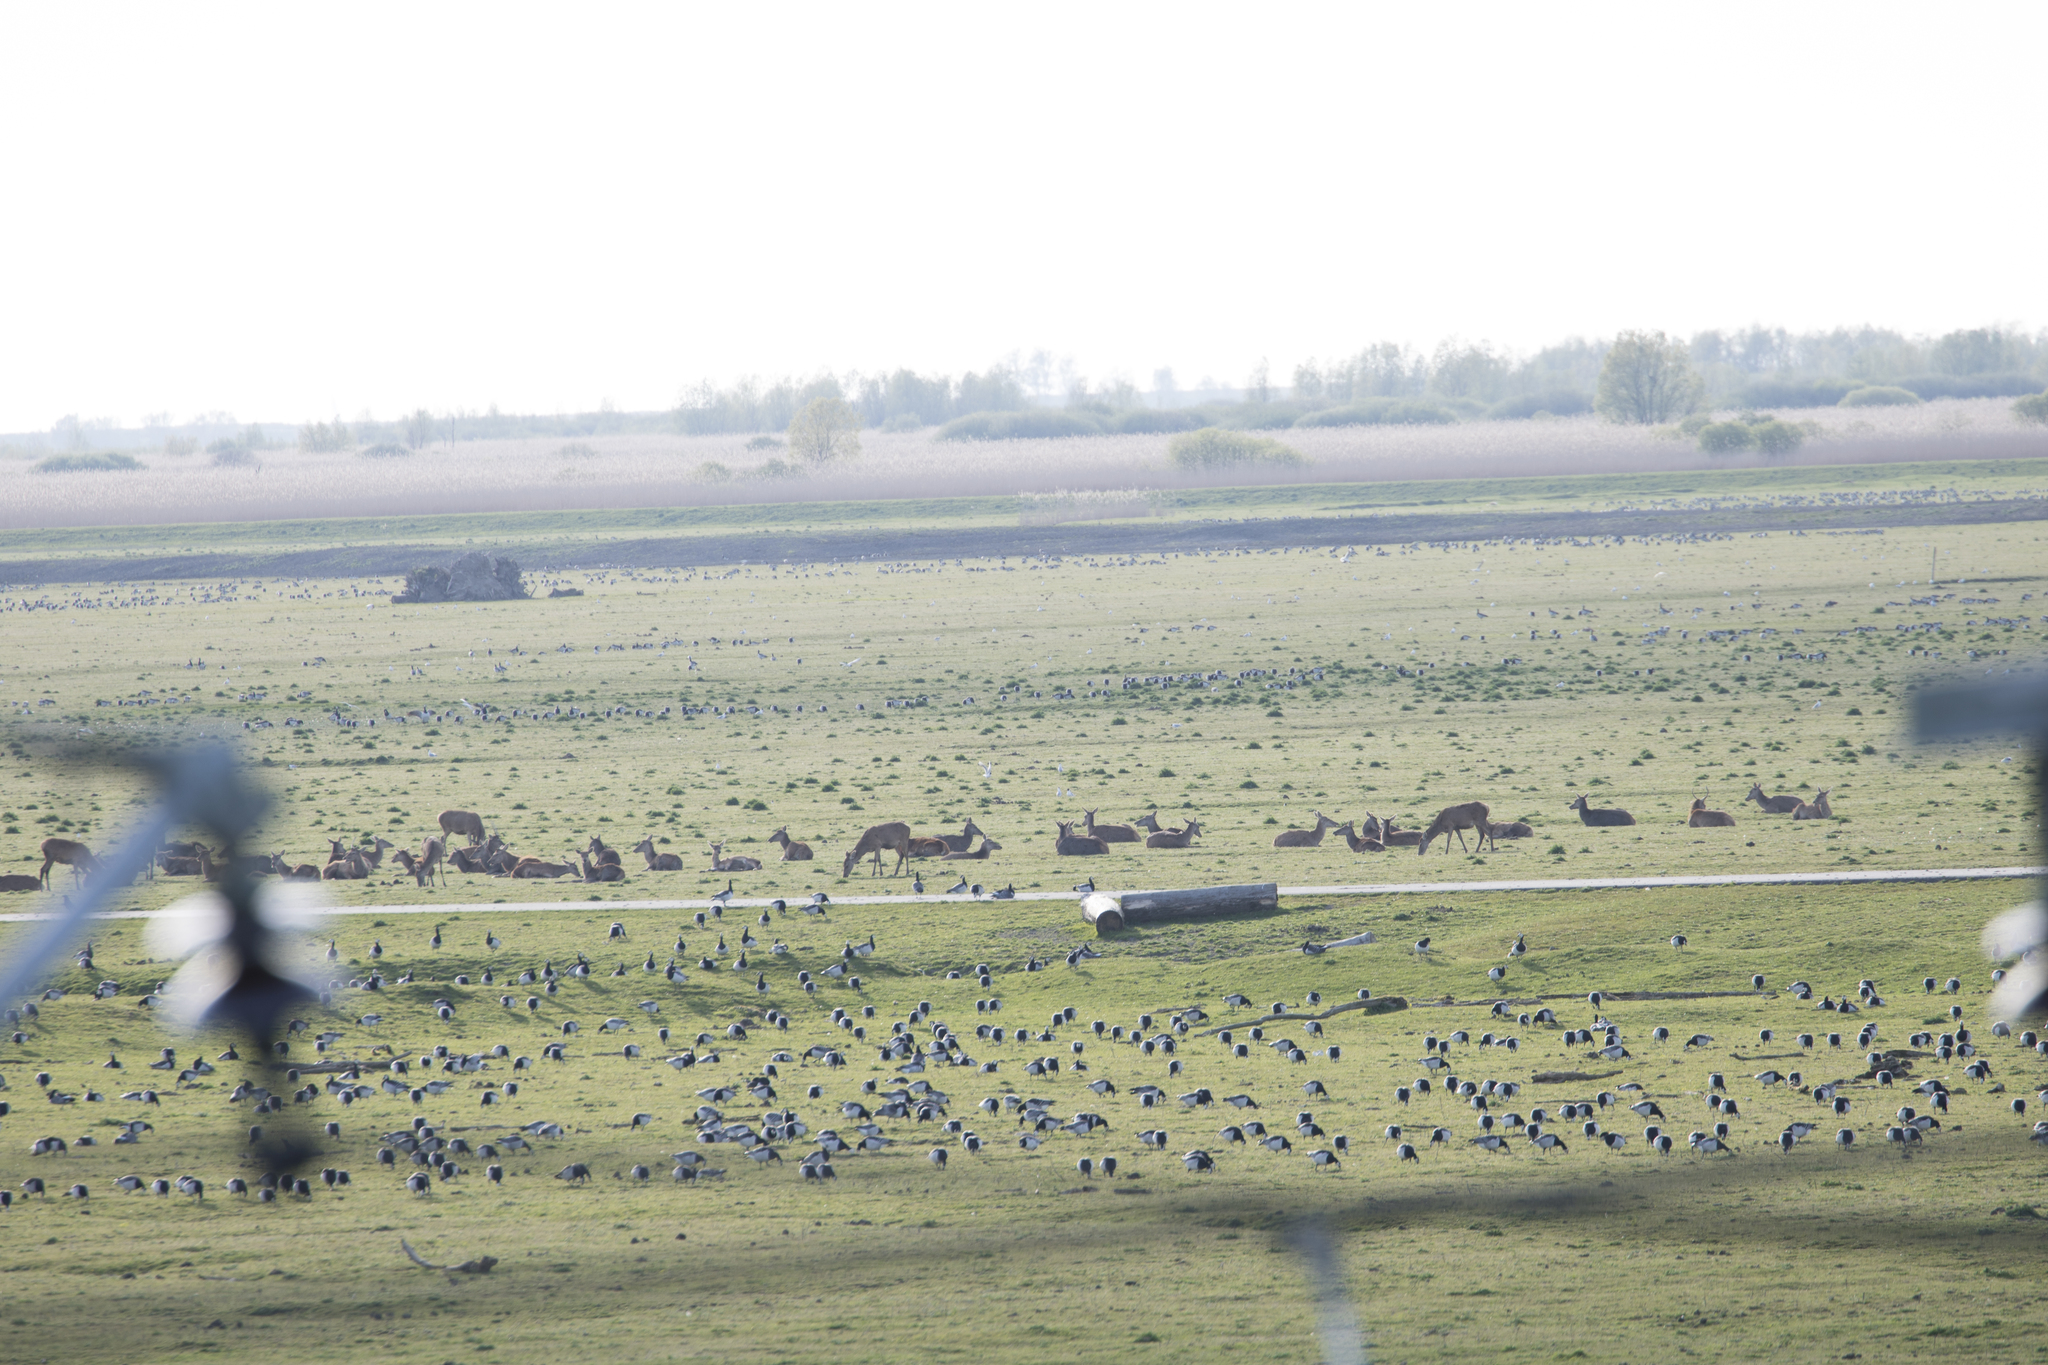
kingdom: Animalia
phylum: Chordata
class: Aves
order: Anseriformes
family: Anatidae
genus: Branta
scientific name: Branta leucopsis
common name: Barnacle goose
